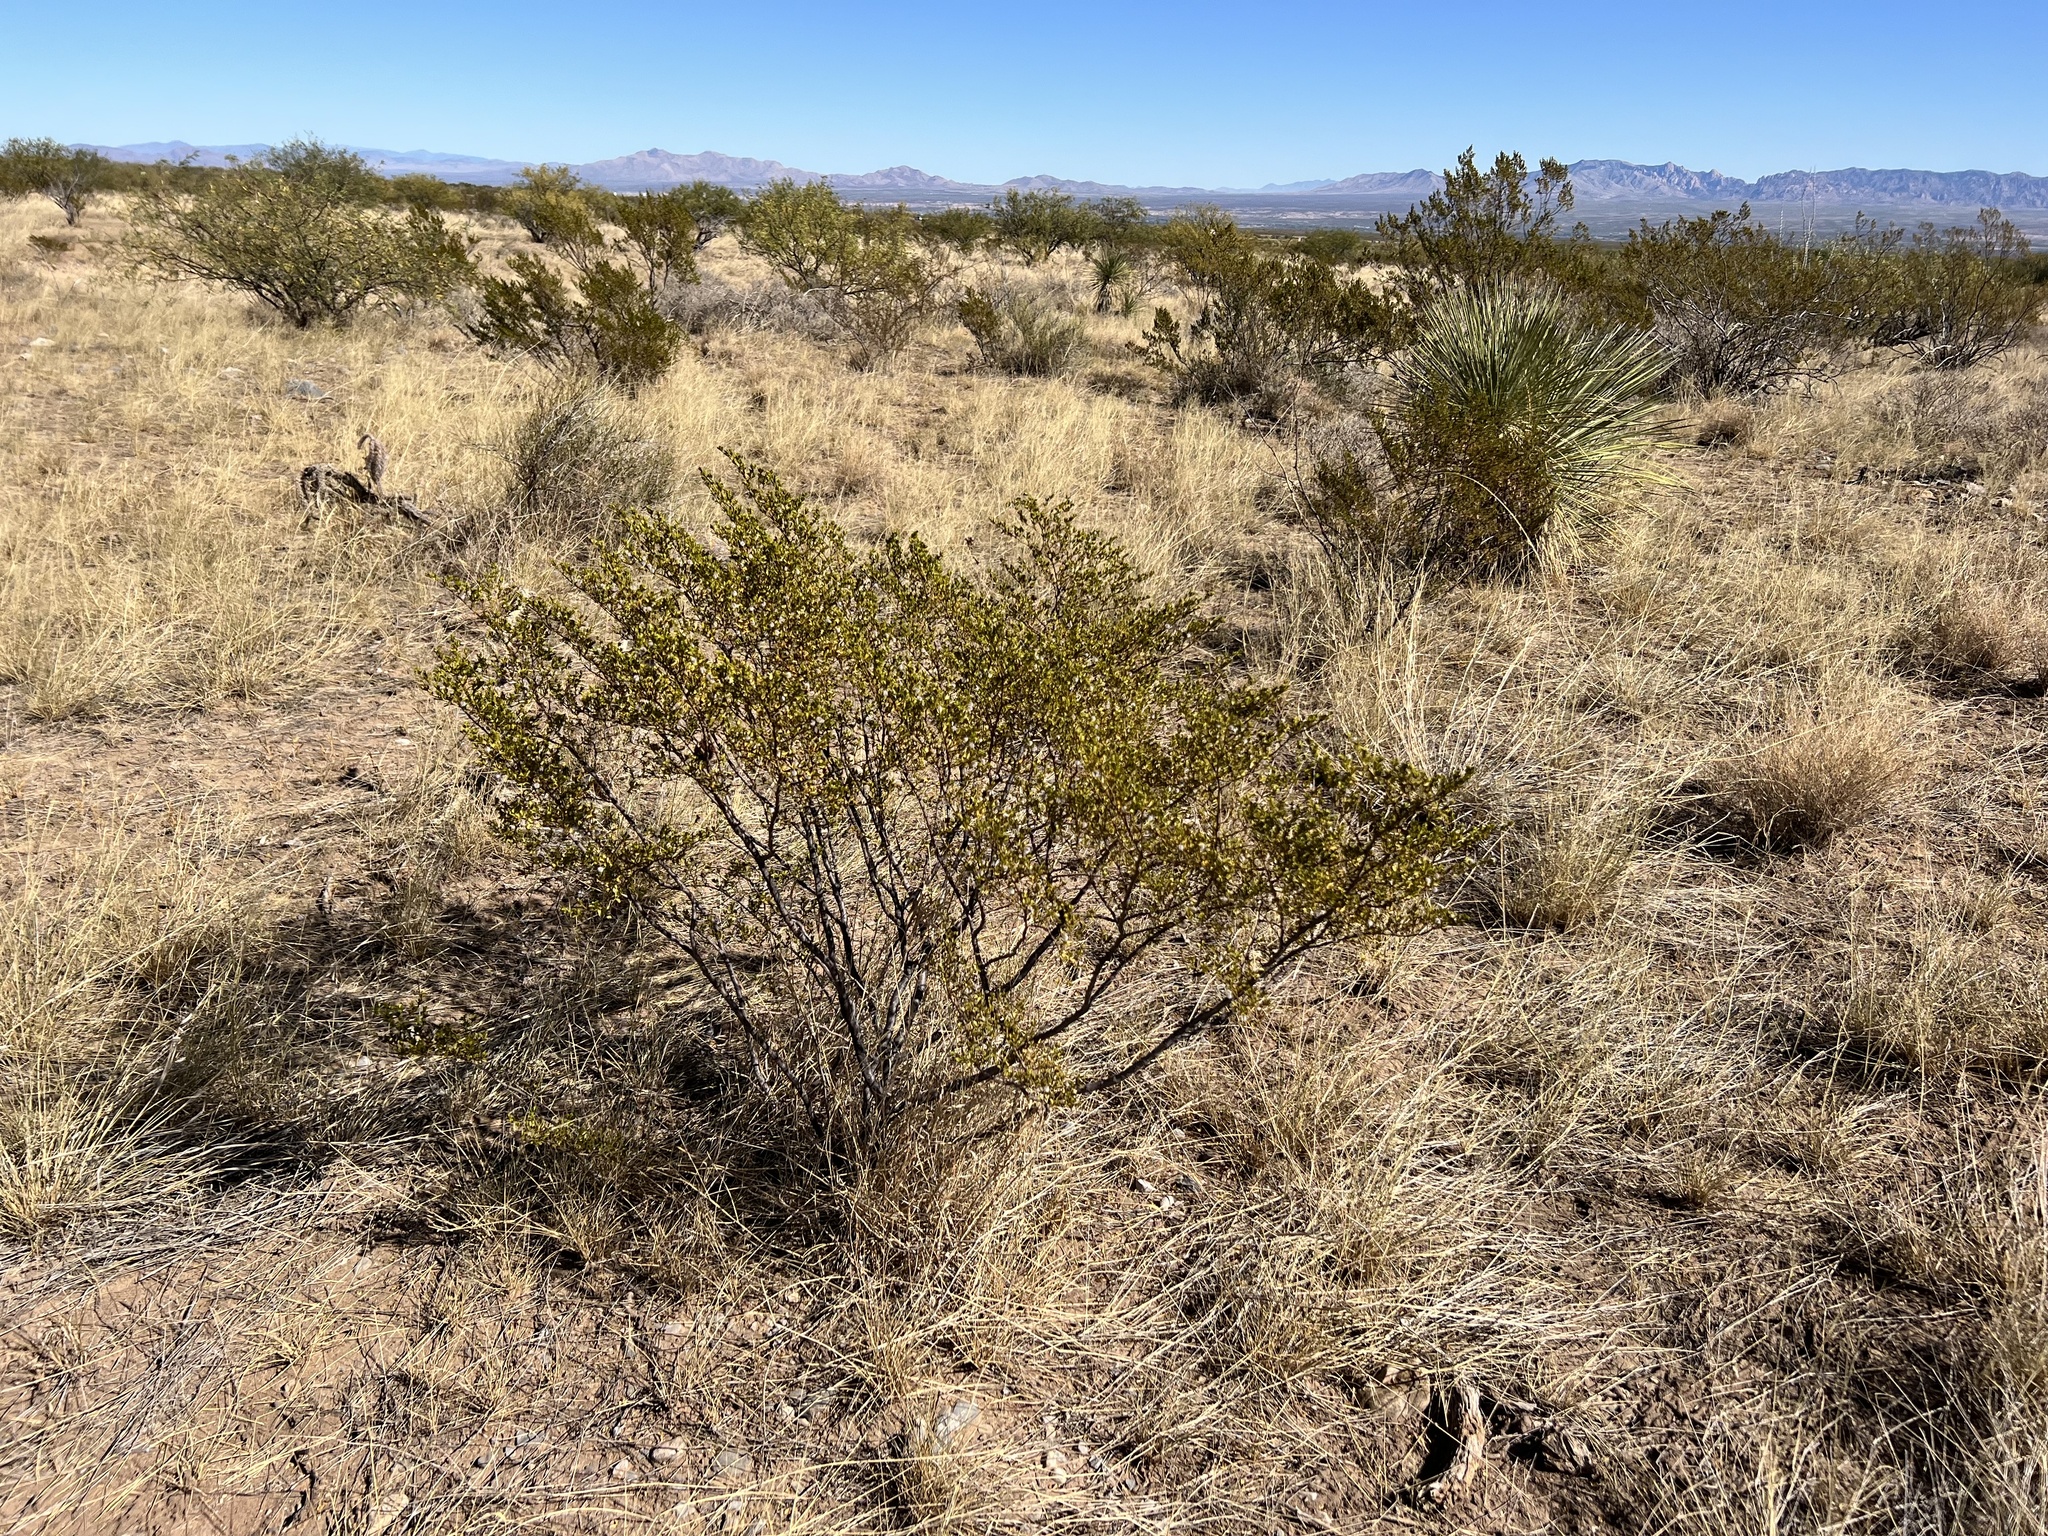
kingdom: Plantae
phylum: Tracheophyta
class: Magnoliopsida
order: Zygophyllales
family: Zygophyllaceae
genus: Larrea
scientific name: Larrea tridentata
